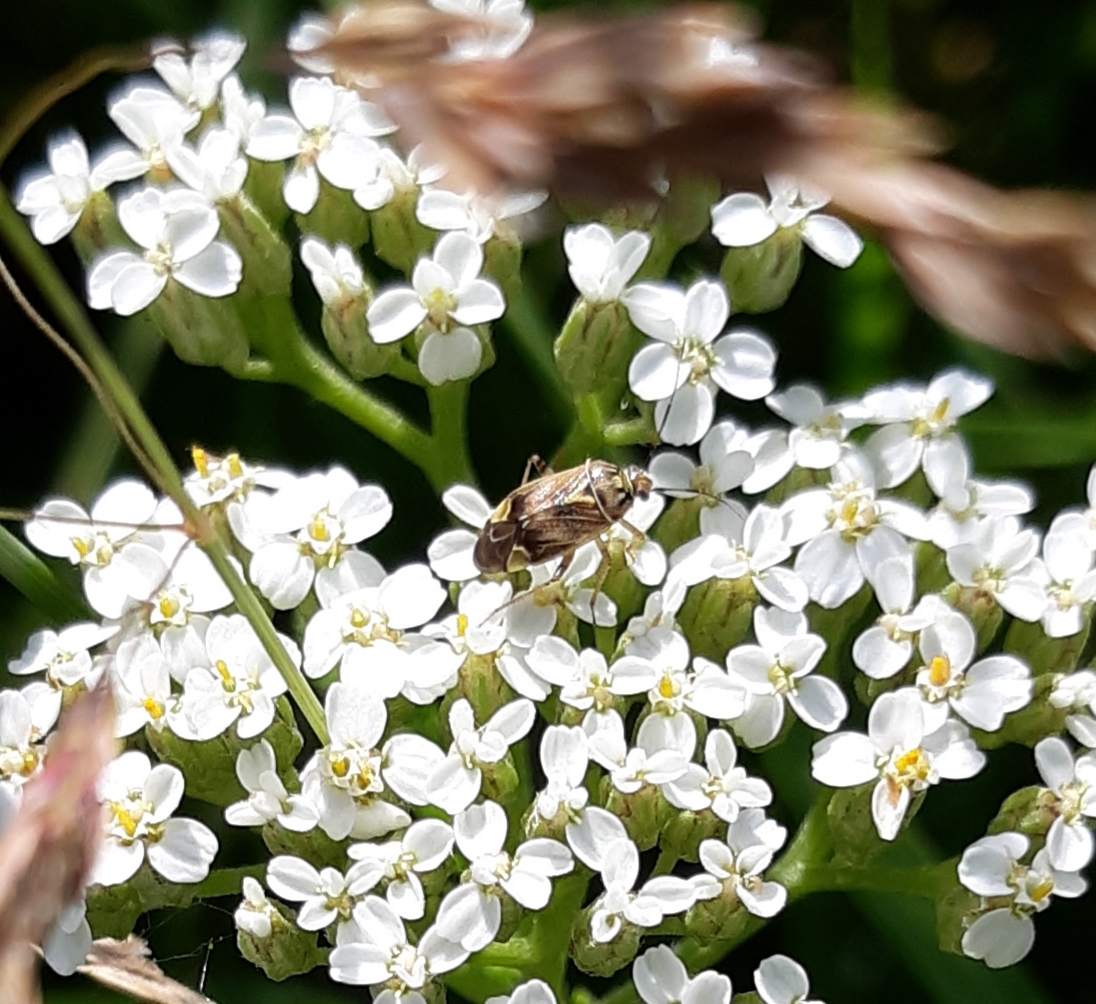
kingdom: Animalia
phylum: Arthropoda
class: Insecta
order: Hemiptera
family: Miridae
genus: Lygus
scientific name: Lygus lineolaris
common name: North american tarnished plant bug
